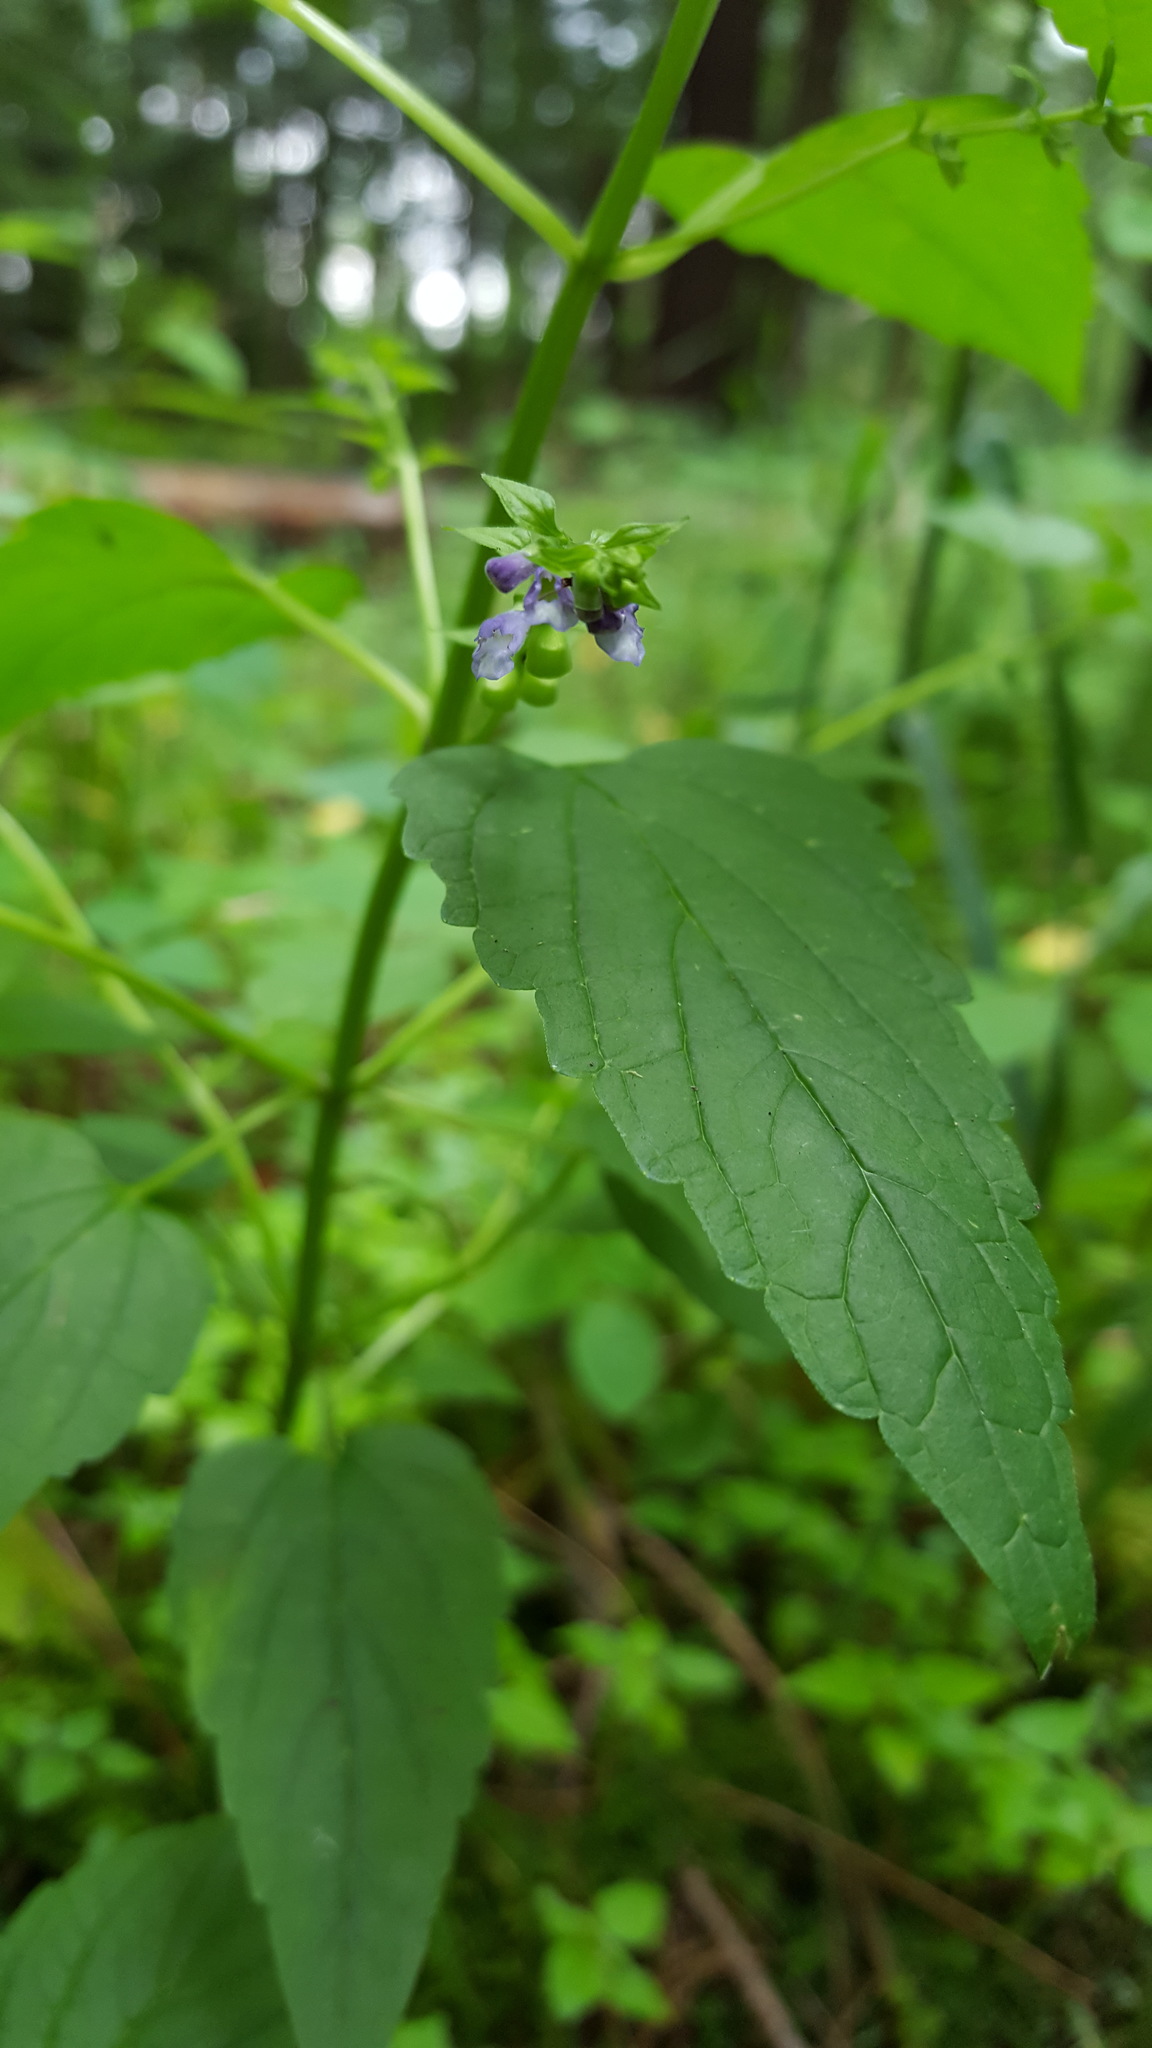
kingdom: Plantae
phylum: Tracheophyta
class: Magnoliopsida
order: Lamiales
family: Lamiaceae
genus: Scutellaria
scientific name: Scutellaria lateriflora
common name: Blue skullcap
